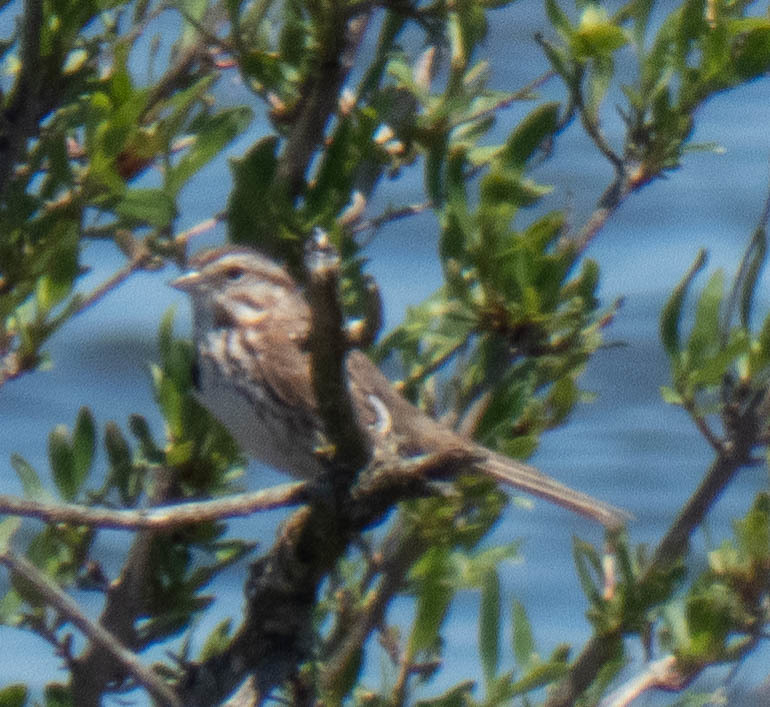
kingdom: Animalia
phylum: Chordata
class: Aves
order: Passeriformes
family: Passerellidae
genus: Melospiza
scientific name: Melospiza melodia
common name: Song sparrow
